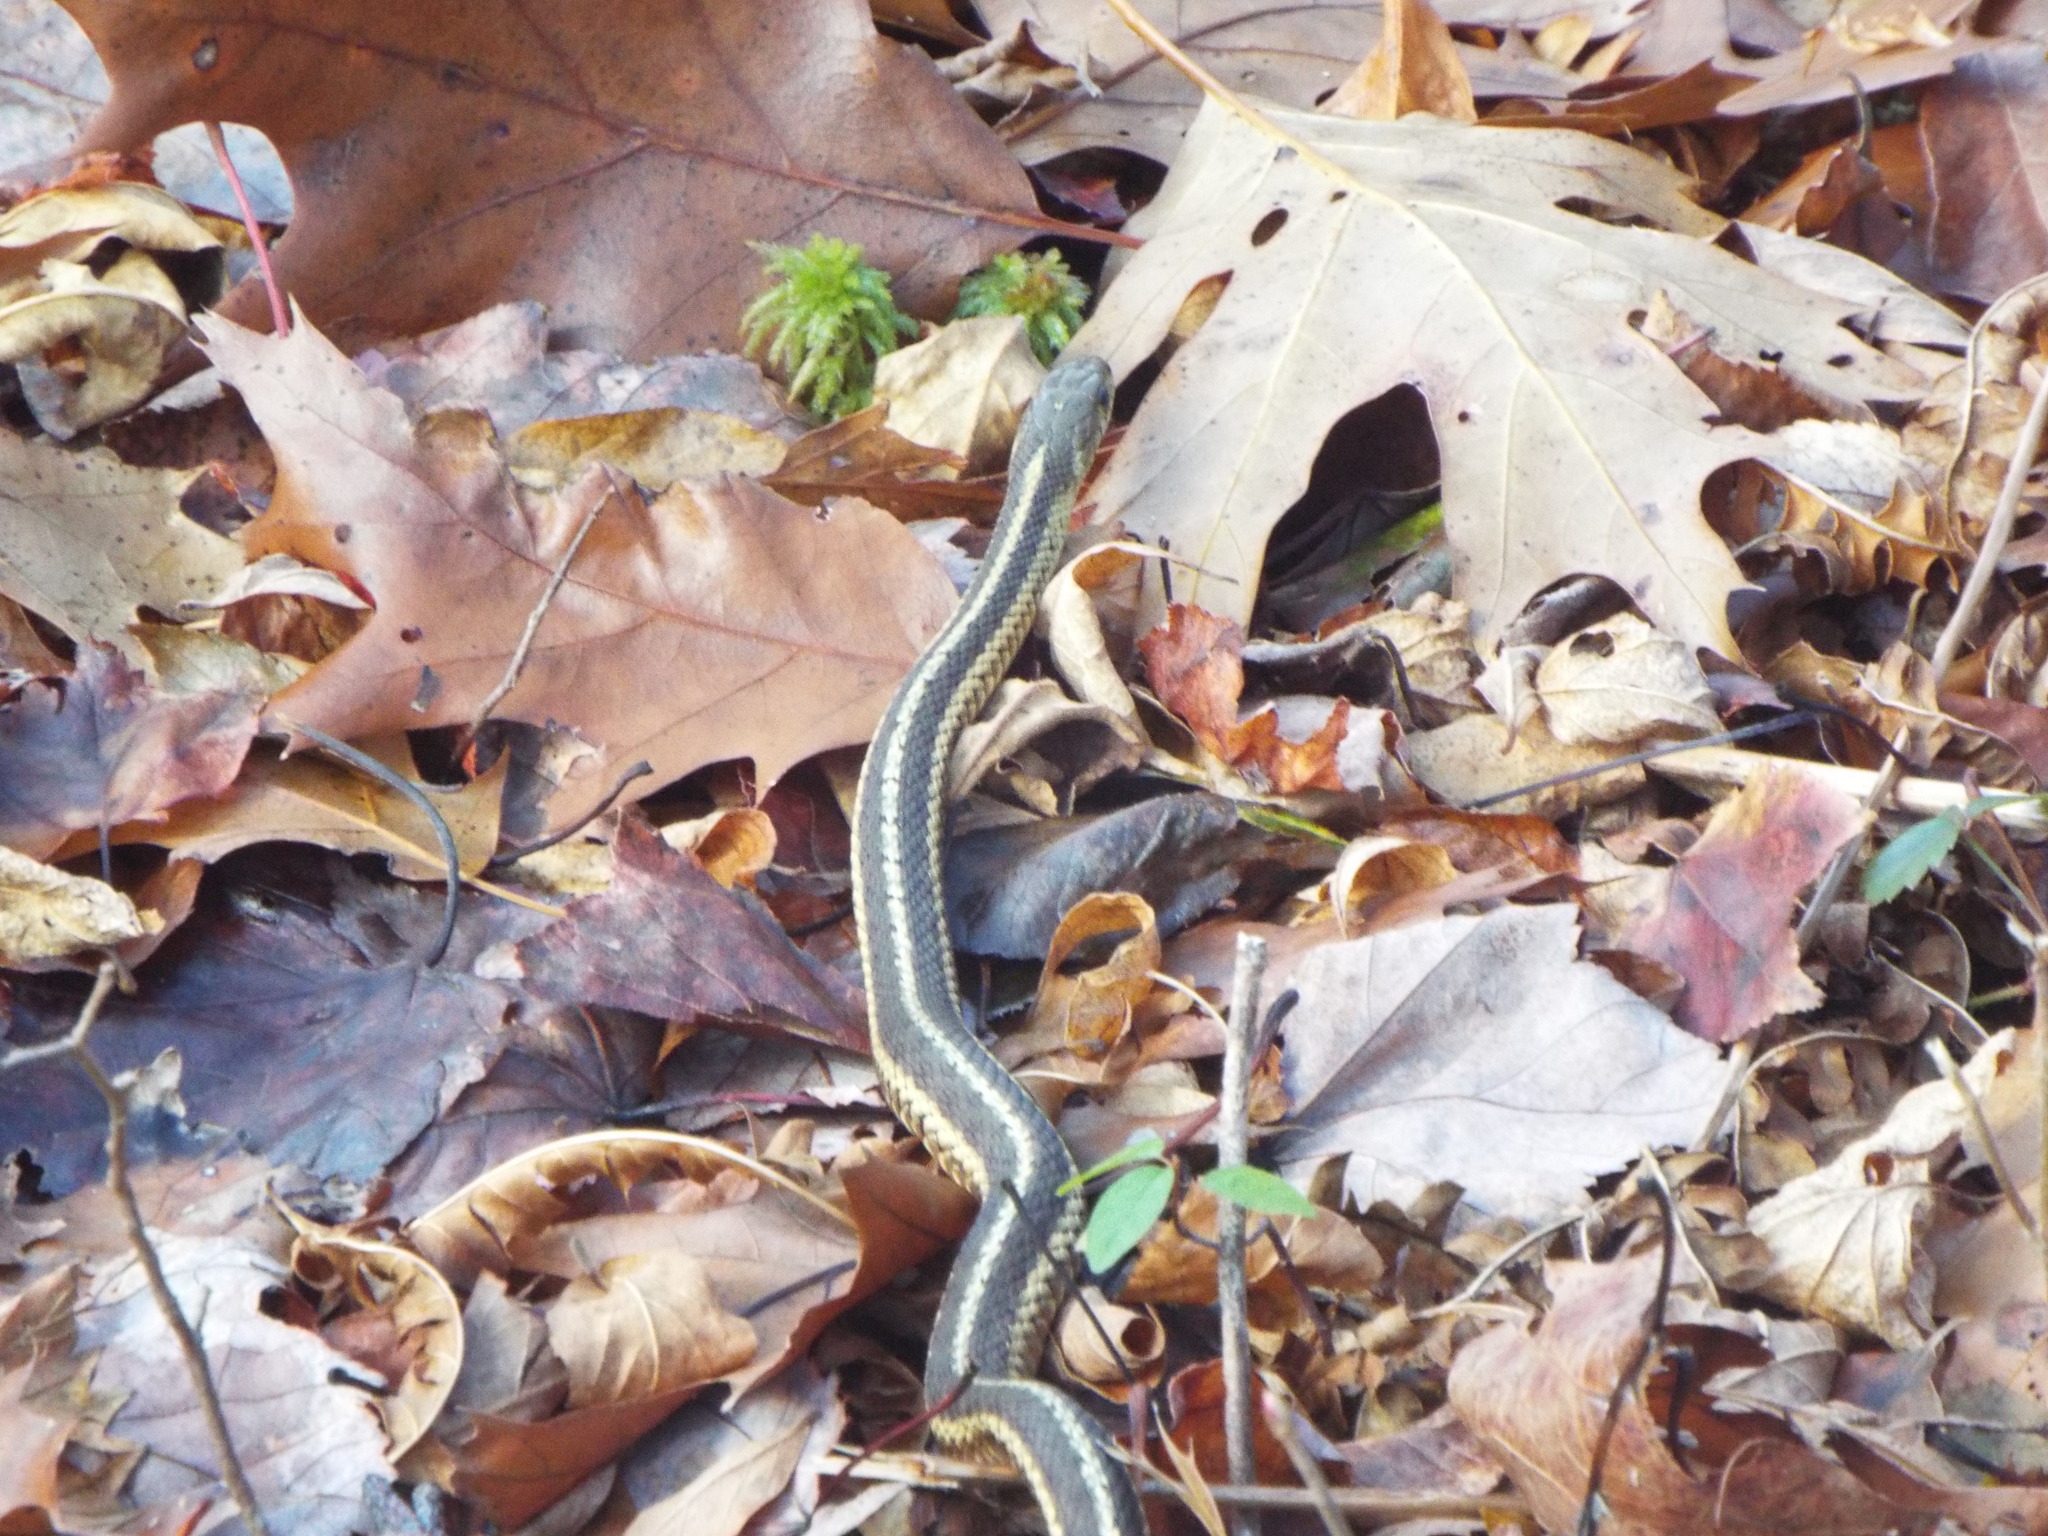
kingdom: Animalia
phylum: Chordata
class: Squamata
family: Colubridae
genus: Thamnophis
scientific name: Thamnophis sirtalis
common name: Common garter snake
